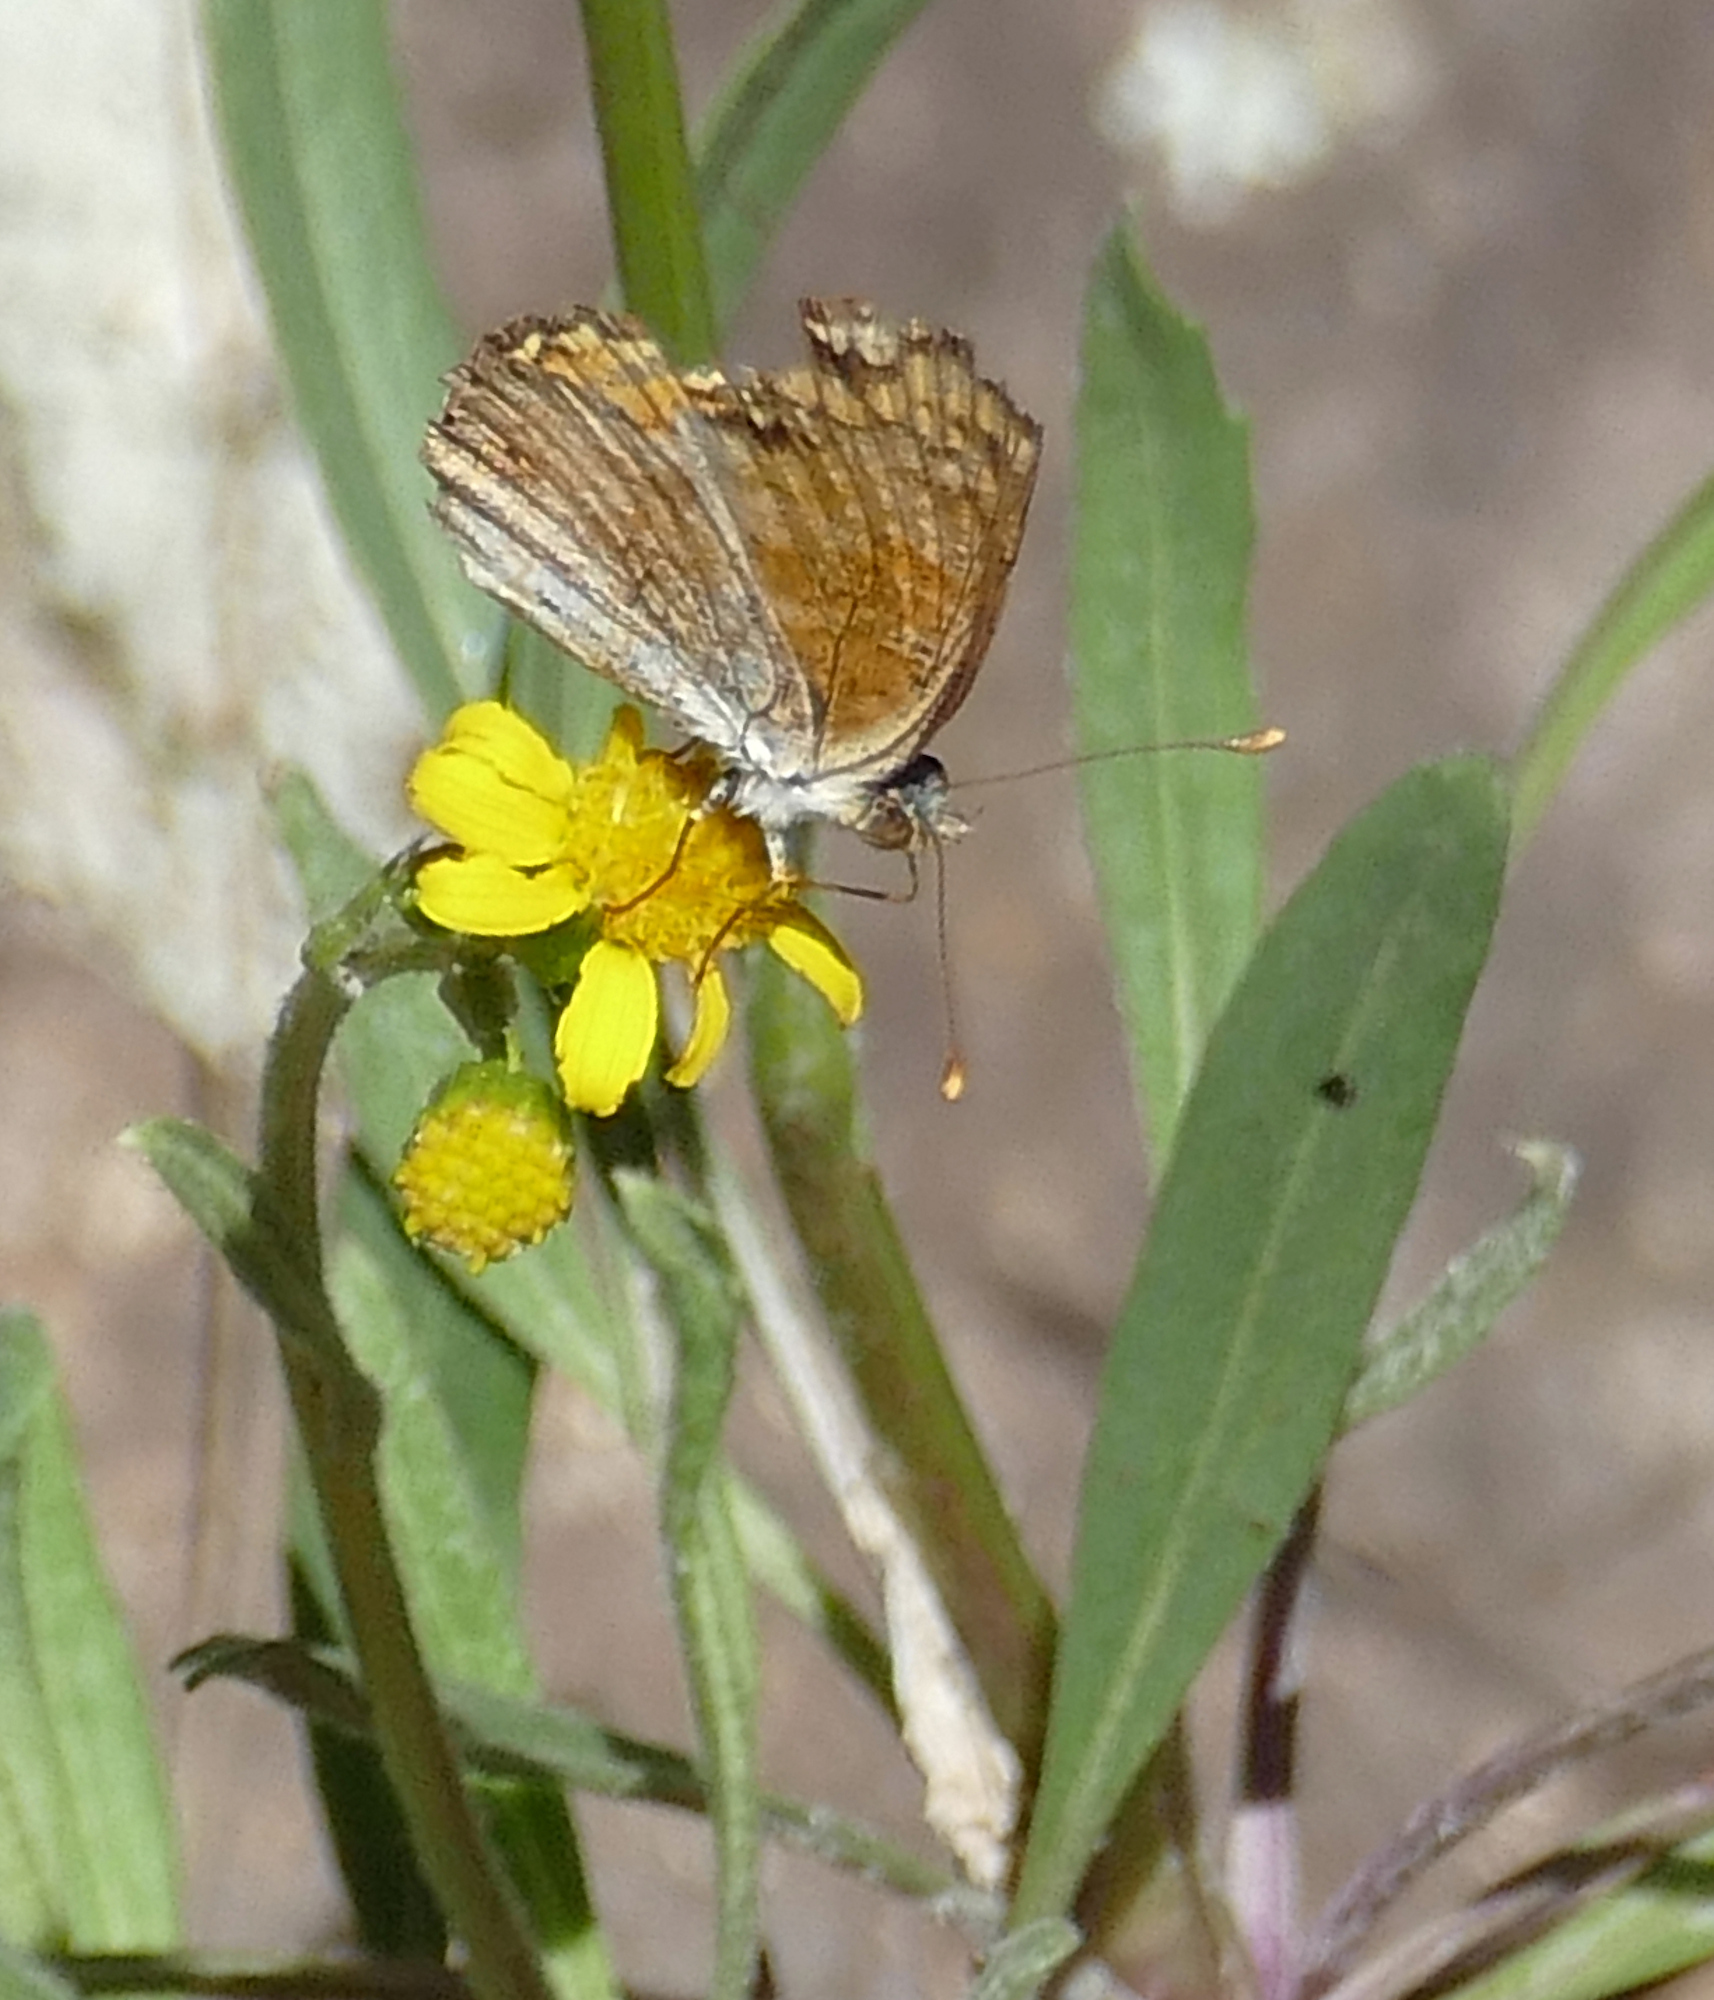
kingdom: Animalia
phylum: Arthropoda
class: Insecta
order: Lepidoptera
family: Nymphalidae
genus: Eresia
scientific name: Eresia aveyrona
